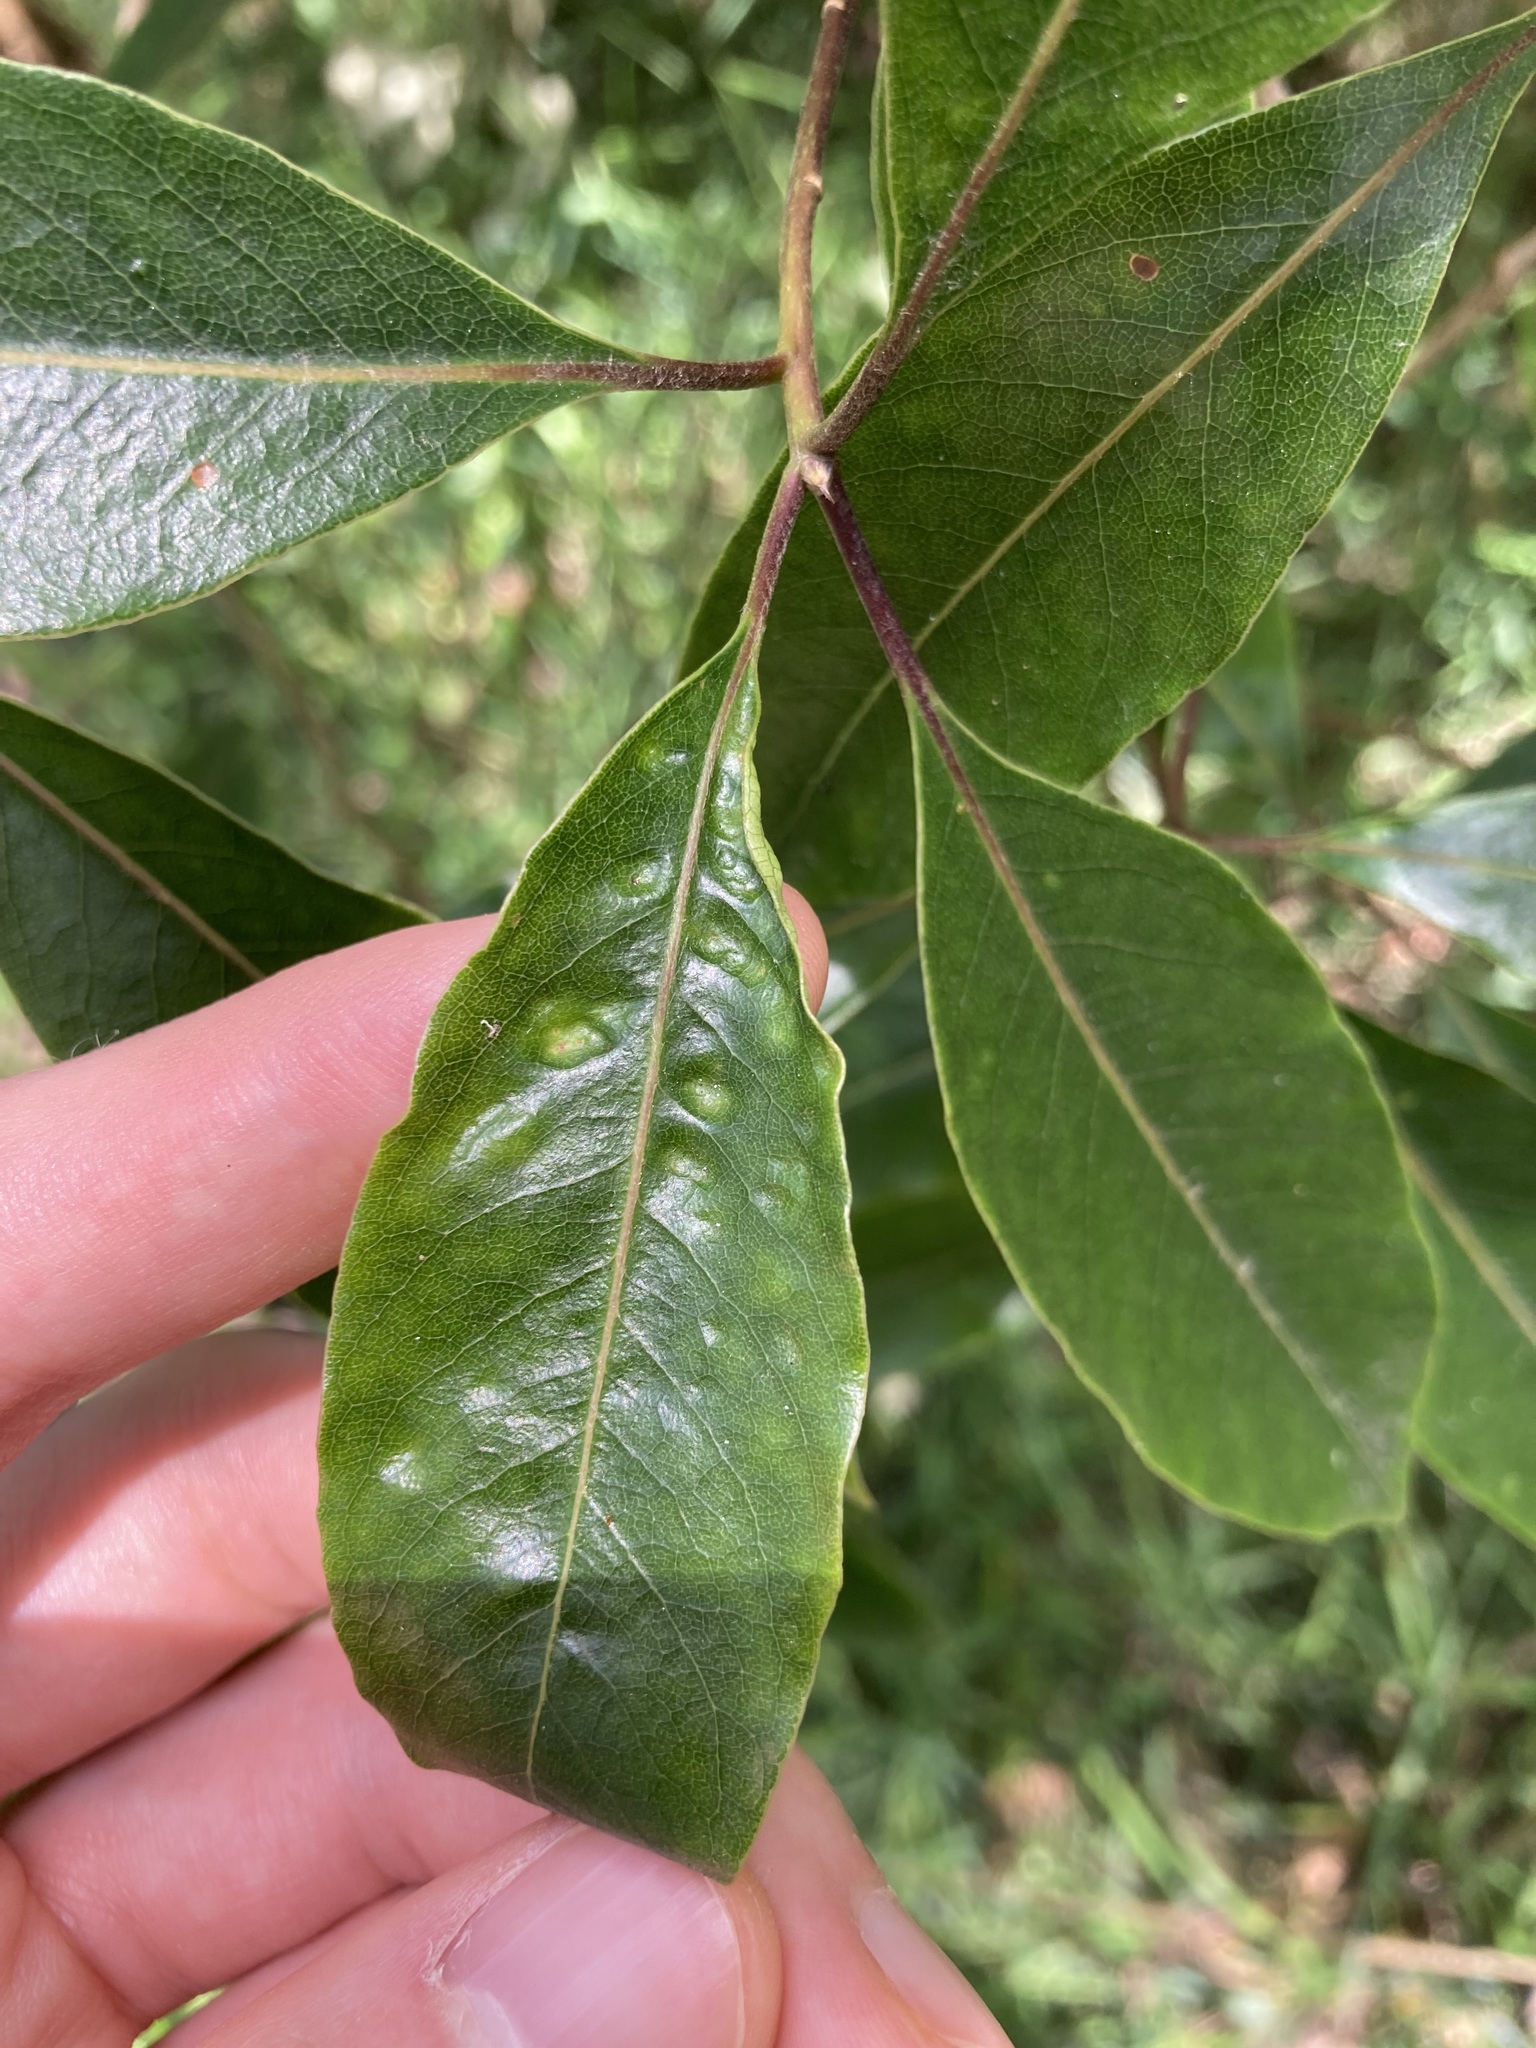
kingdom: Animalia
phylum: Arthropoda
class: Insecta
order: Diptera
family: Agromyzidae
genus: Phytoliriomyza
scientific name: Phytoliriomyza pittosporophylli
